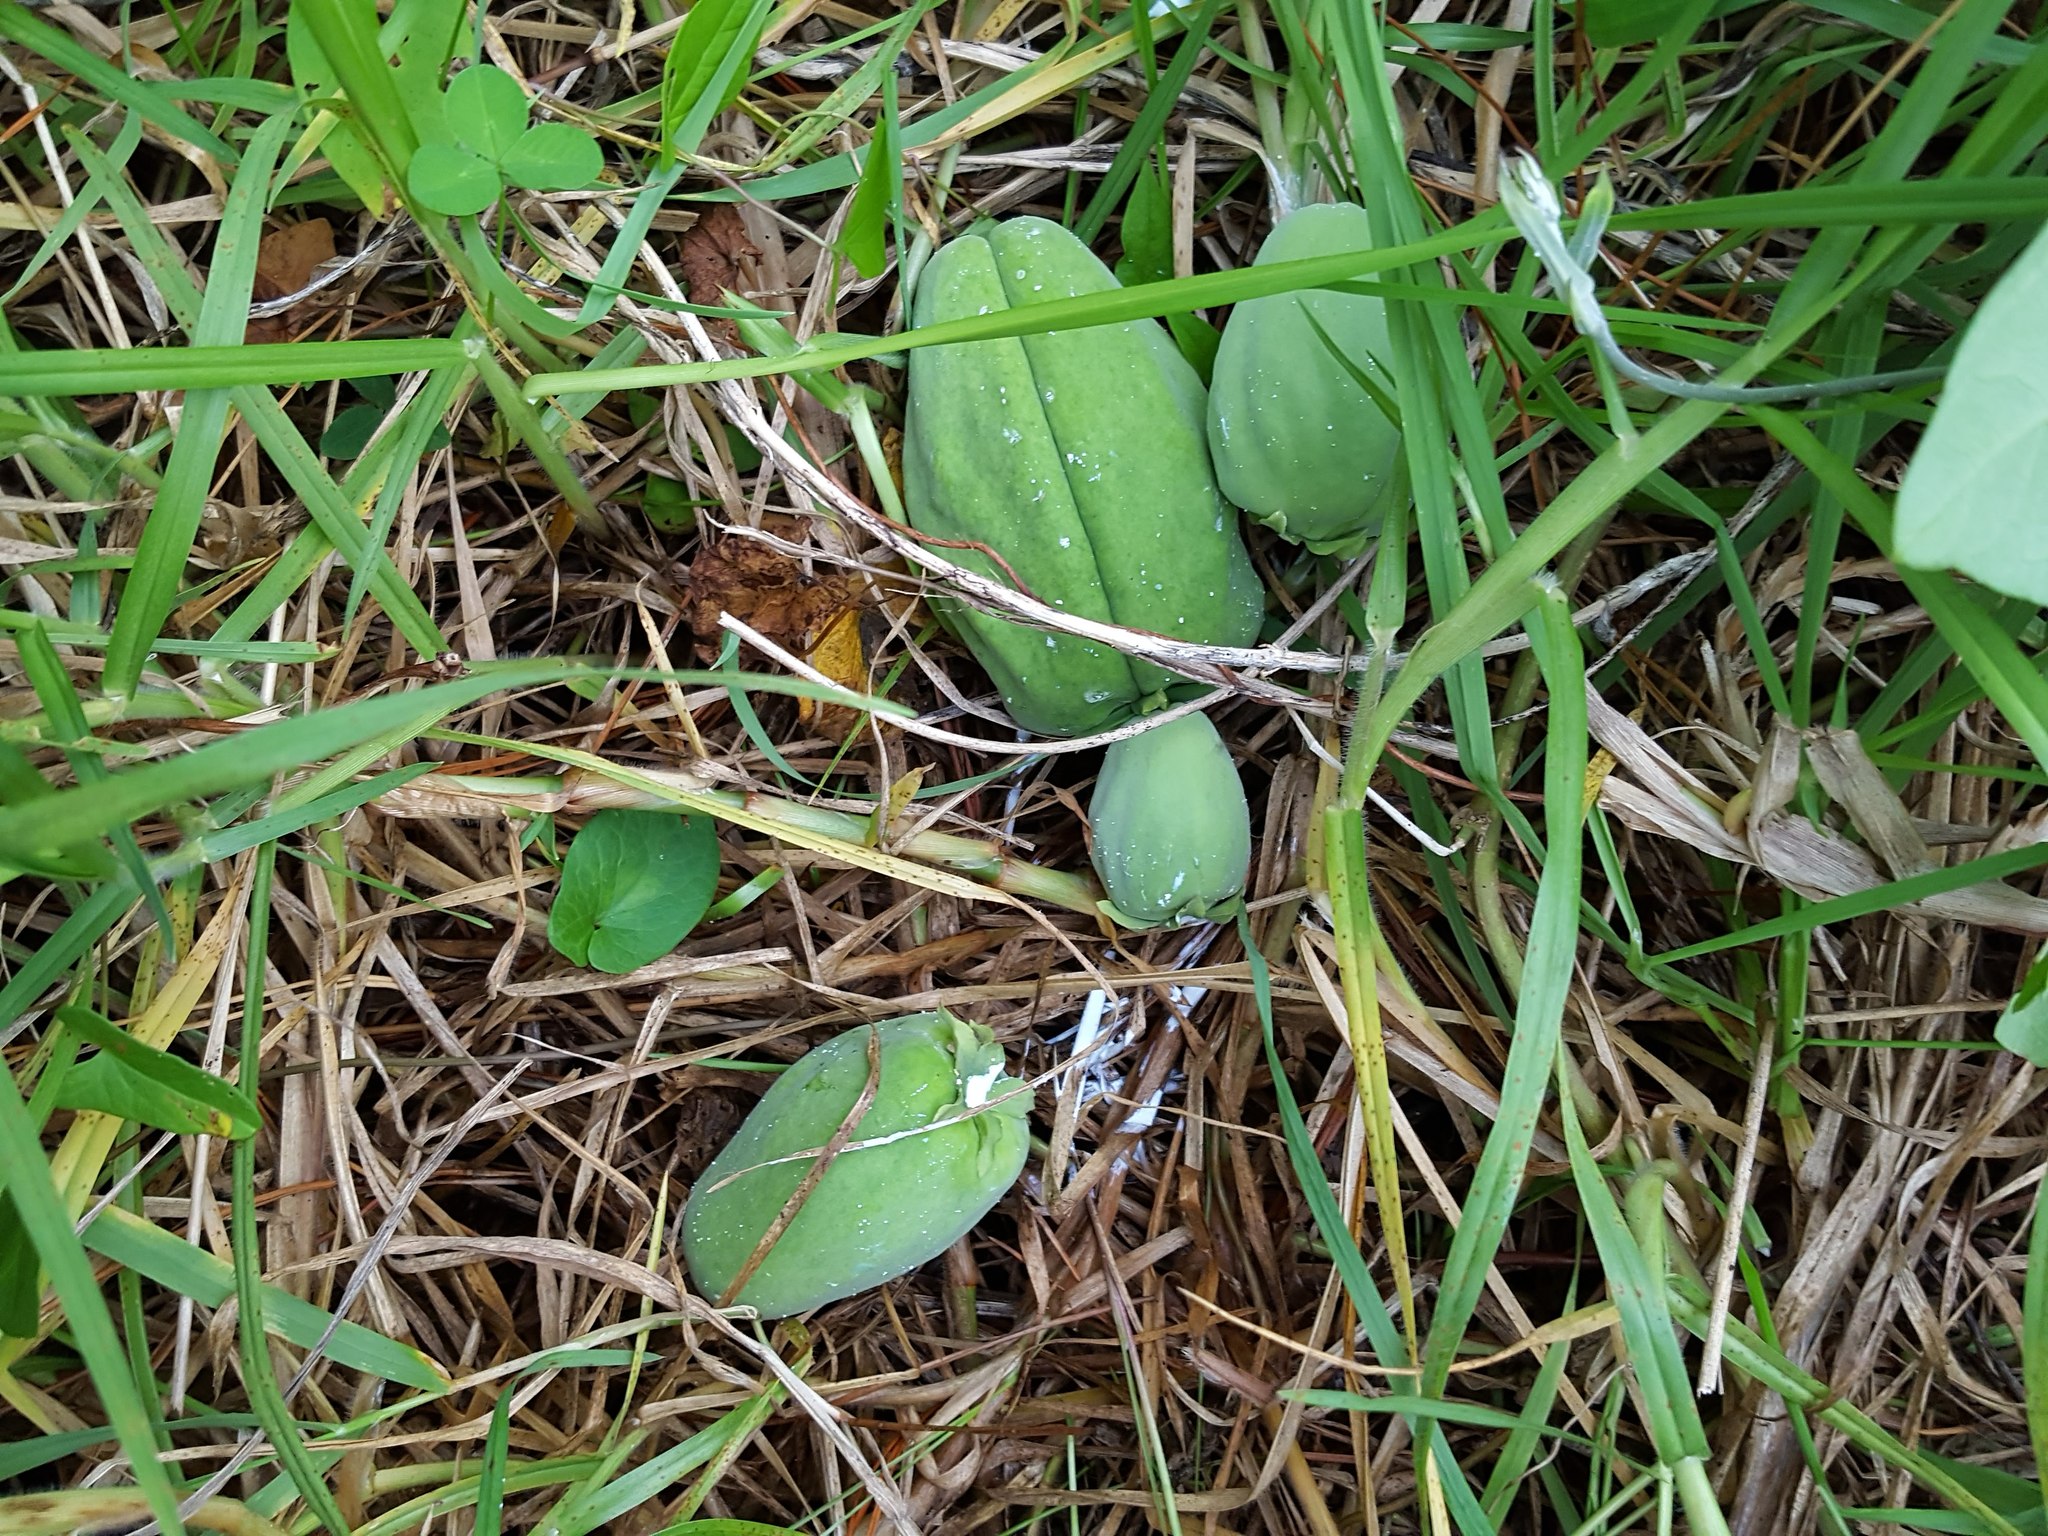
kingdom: Plantae
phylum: Tracheophyta
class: Magnoliopsida
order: Gentianales
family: Apocynaceae
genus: Araujia
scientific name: Araujia sericifera
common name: White bladderflower
